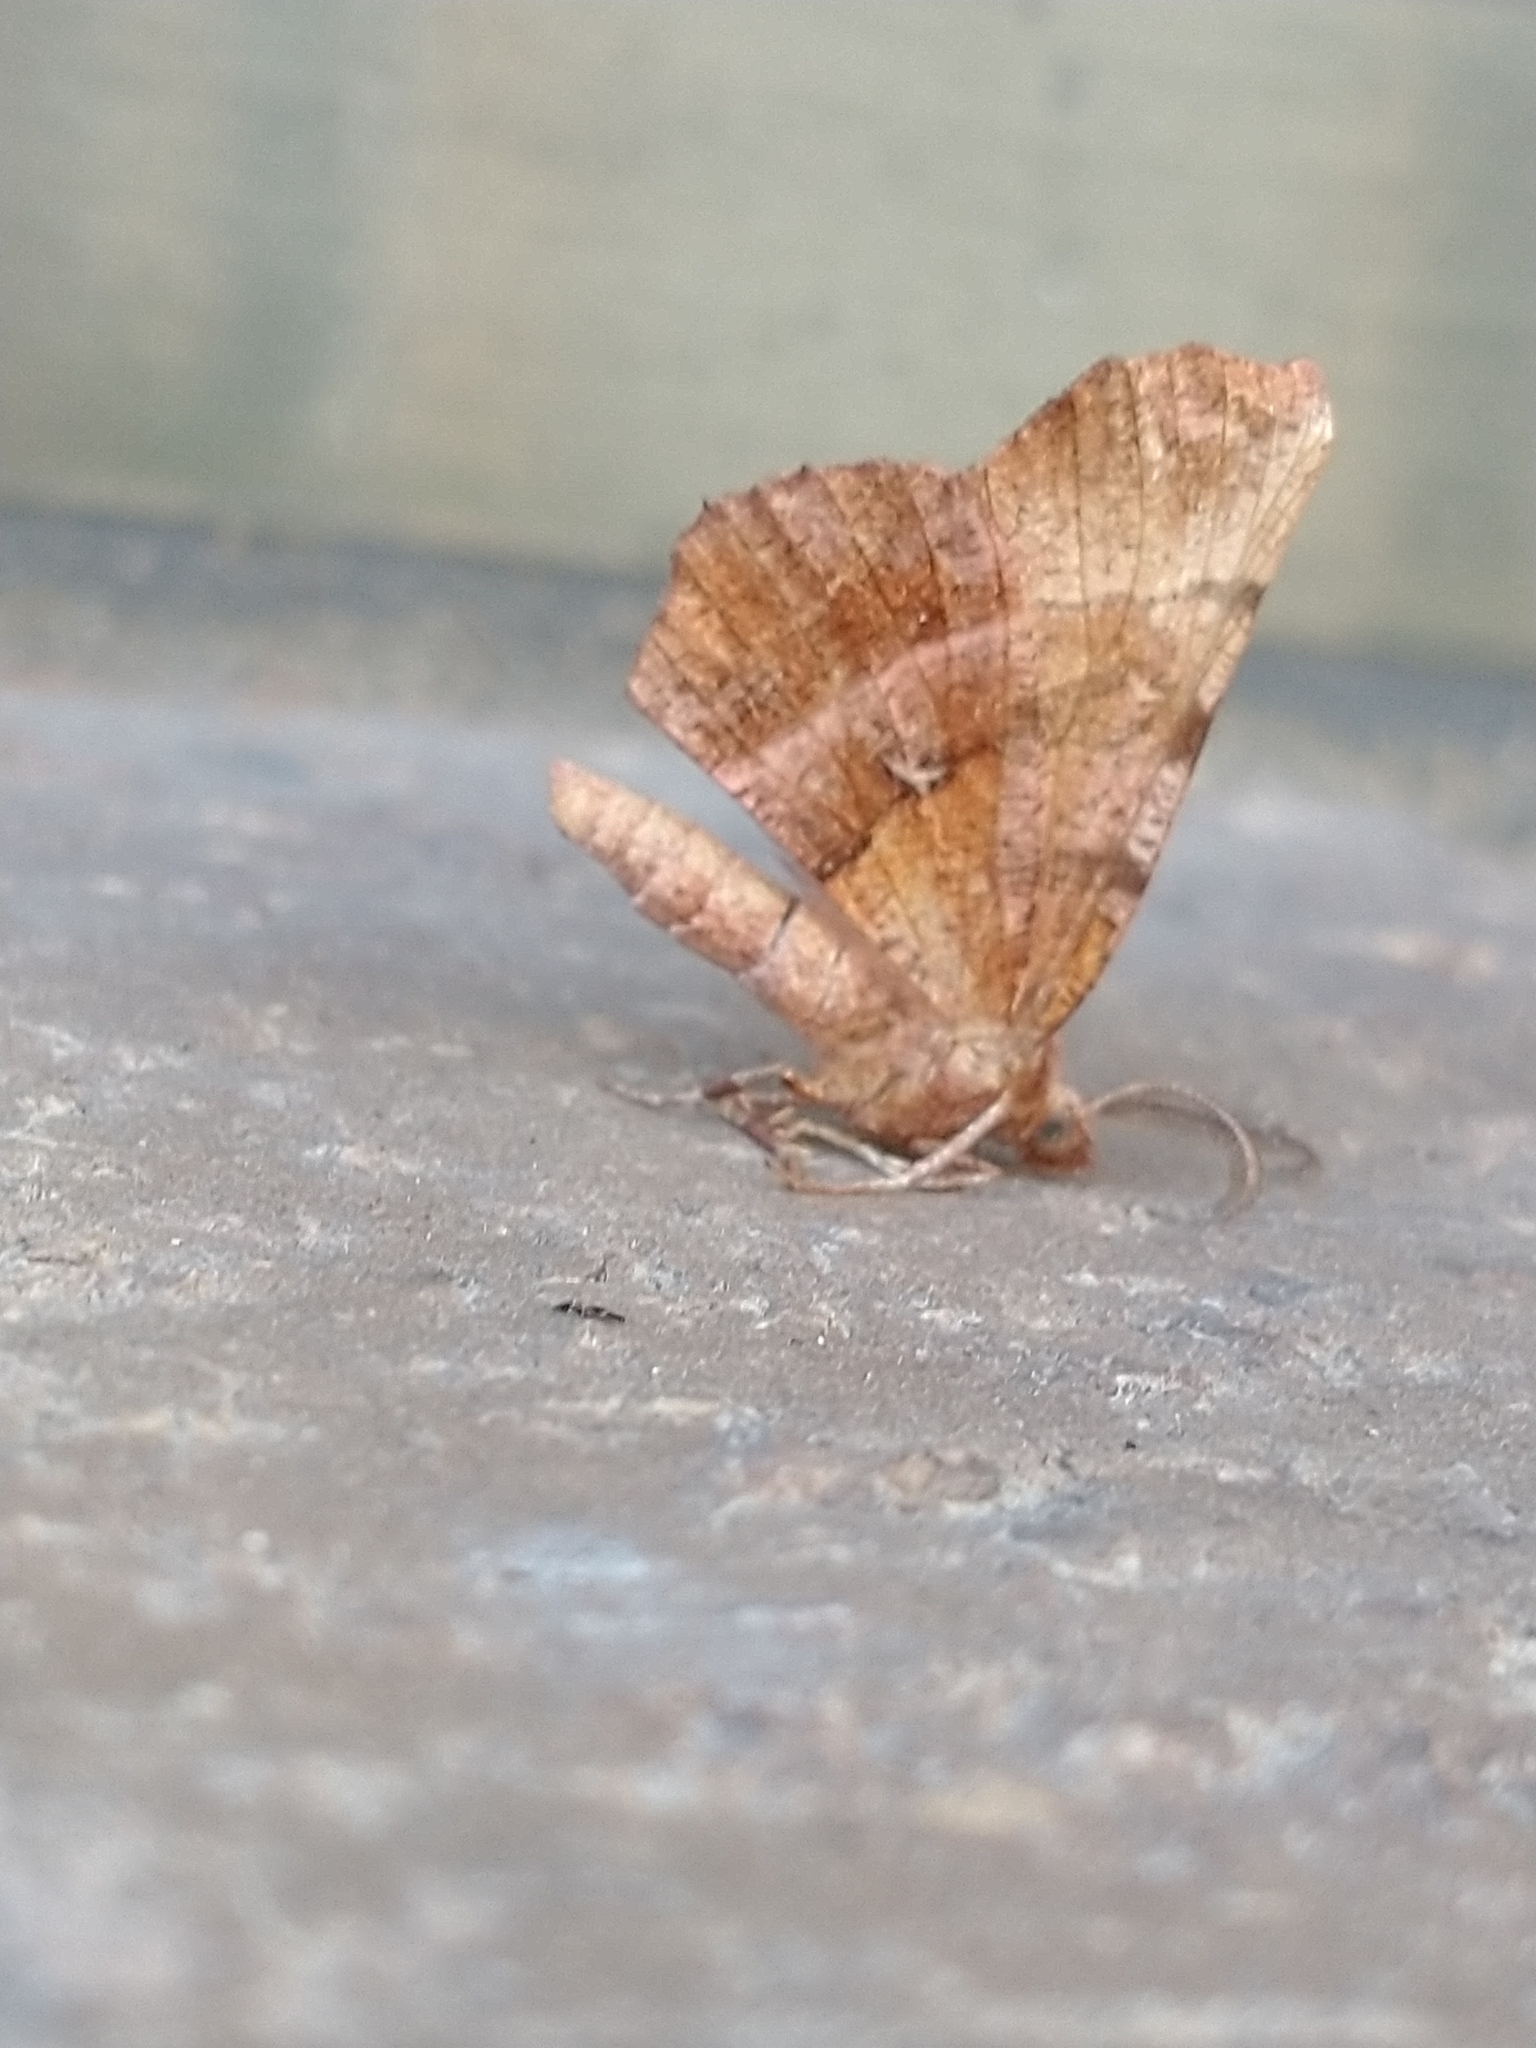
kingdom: Animalia
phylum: Arthropoda
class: Insecta
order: Lepidoptera
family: Geometridae
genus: Selenia
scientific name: Selenia dentaria
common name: Early thorn
